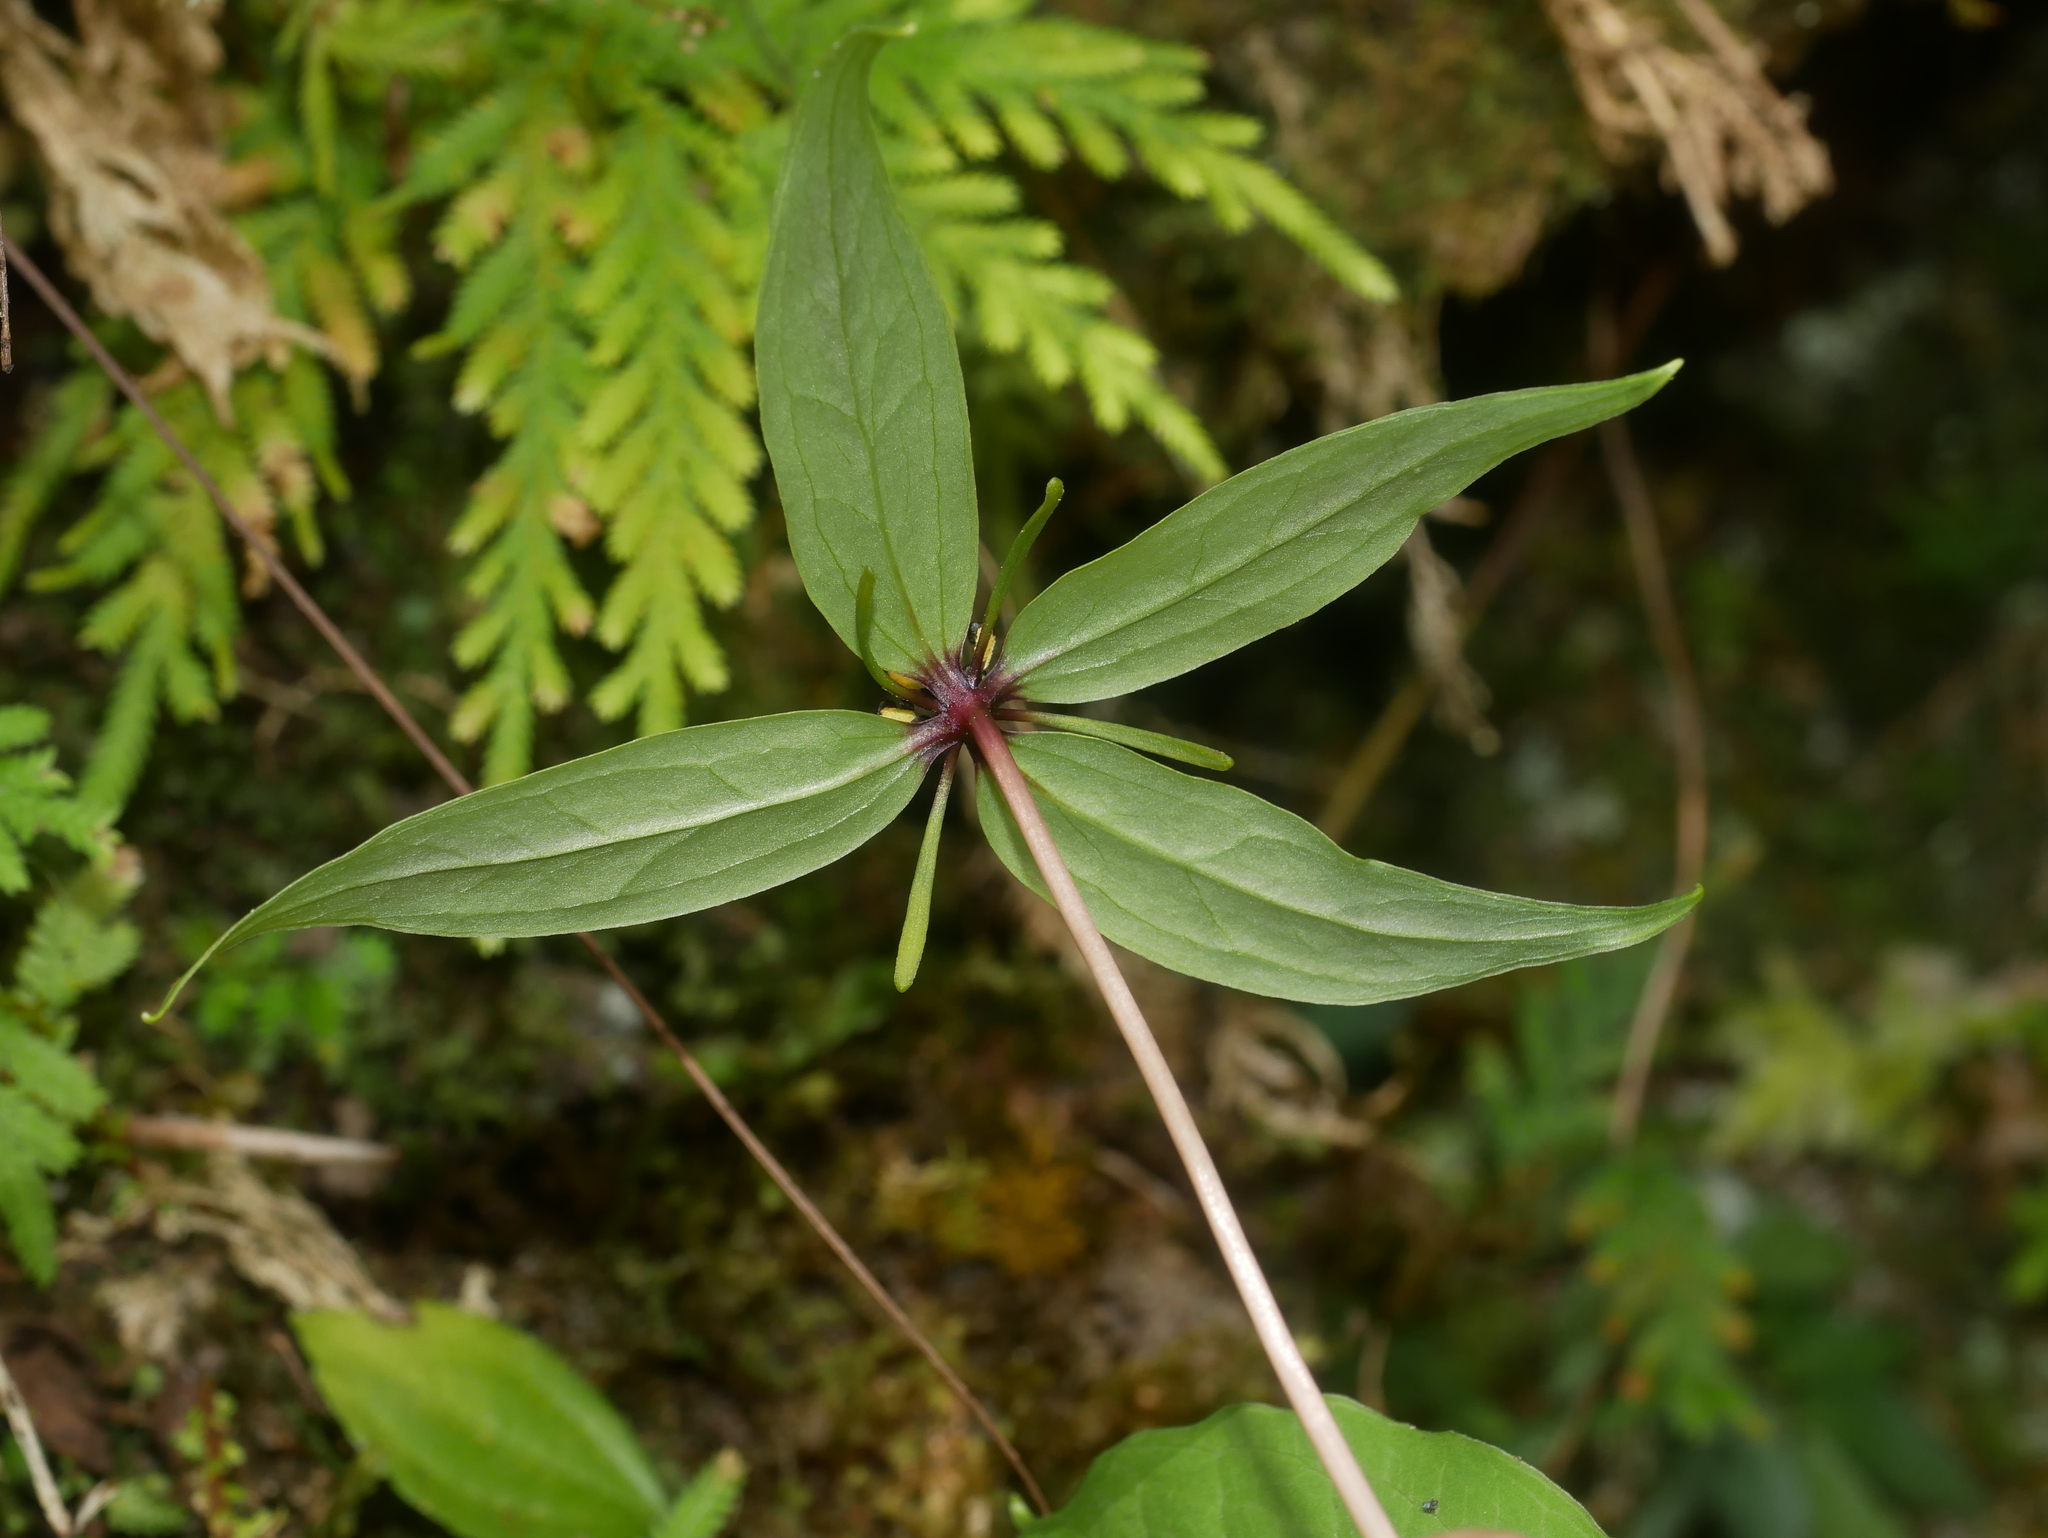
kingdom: Plantae
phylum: Tracheophyta
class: Liliopsida
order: Liliales
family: Melanthiaceae
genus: Paris
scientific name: Paris fargesii
